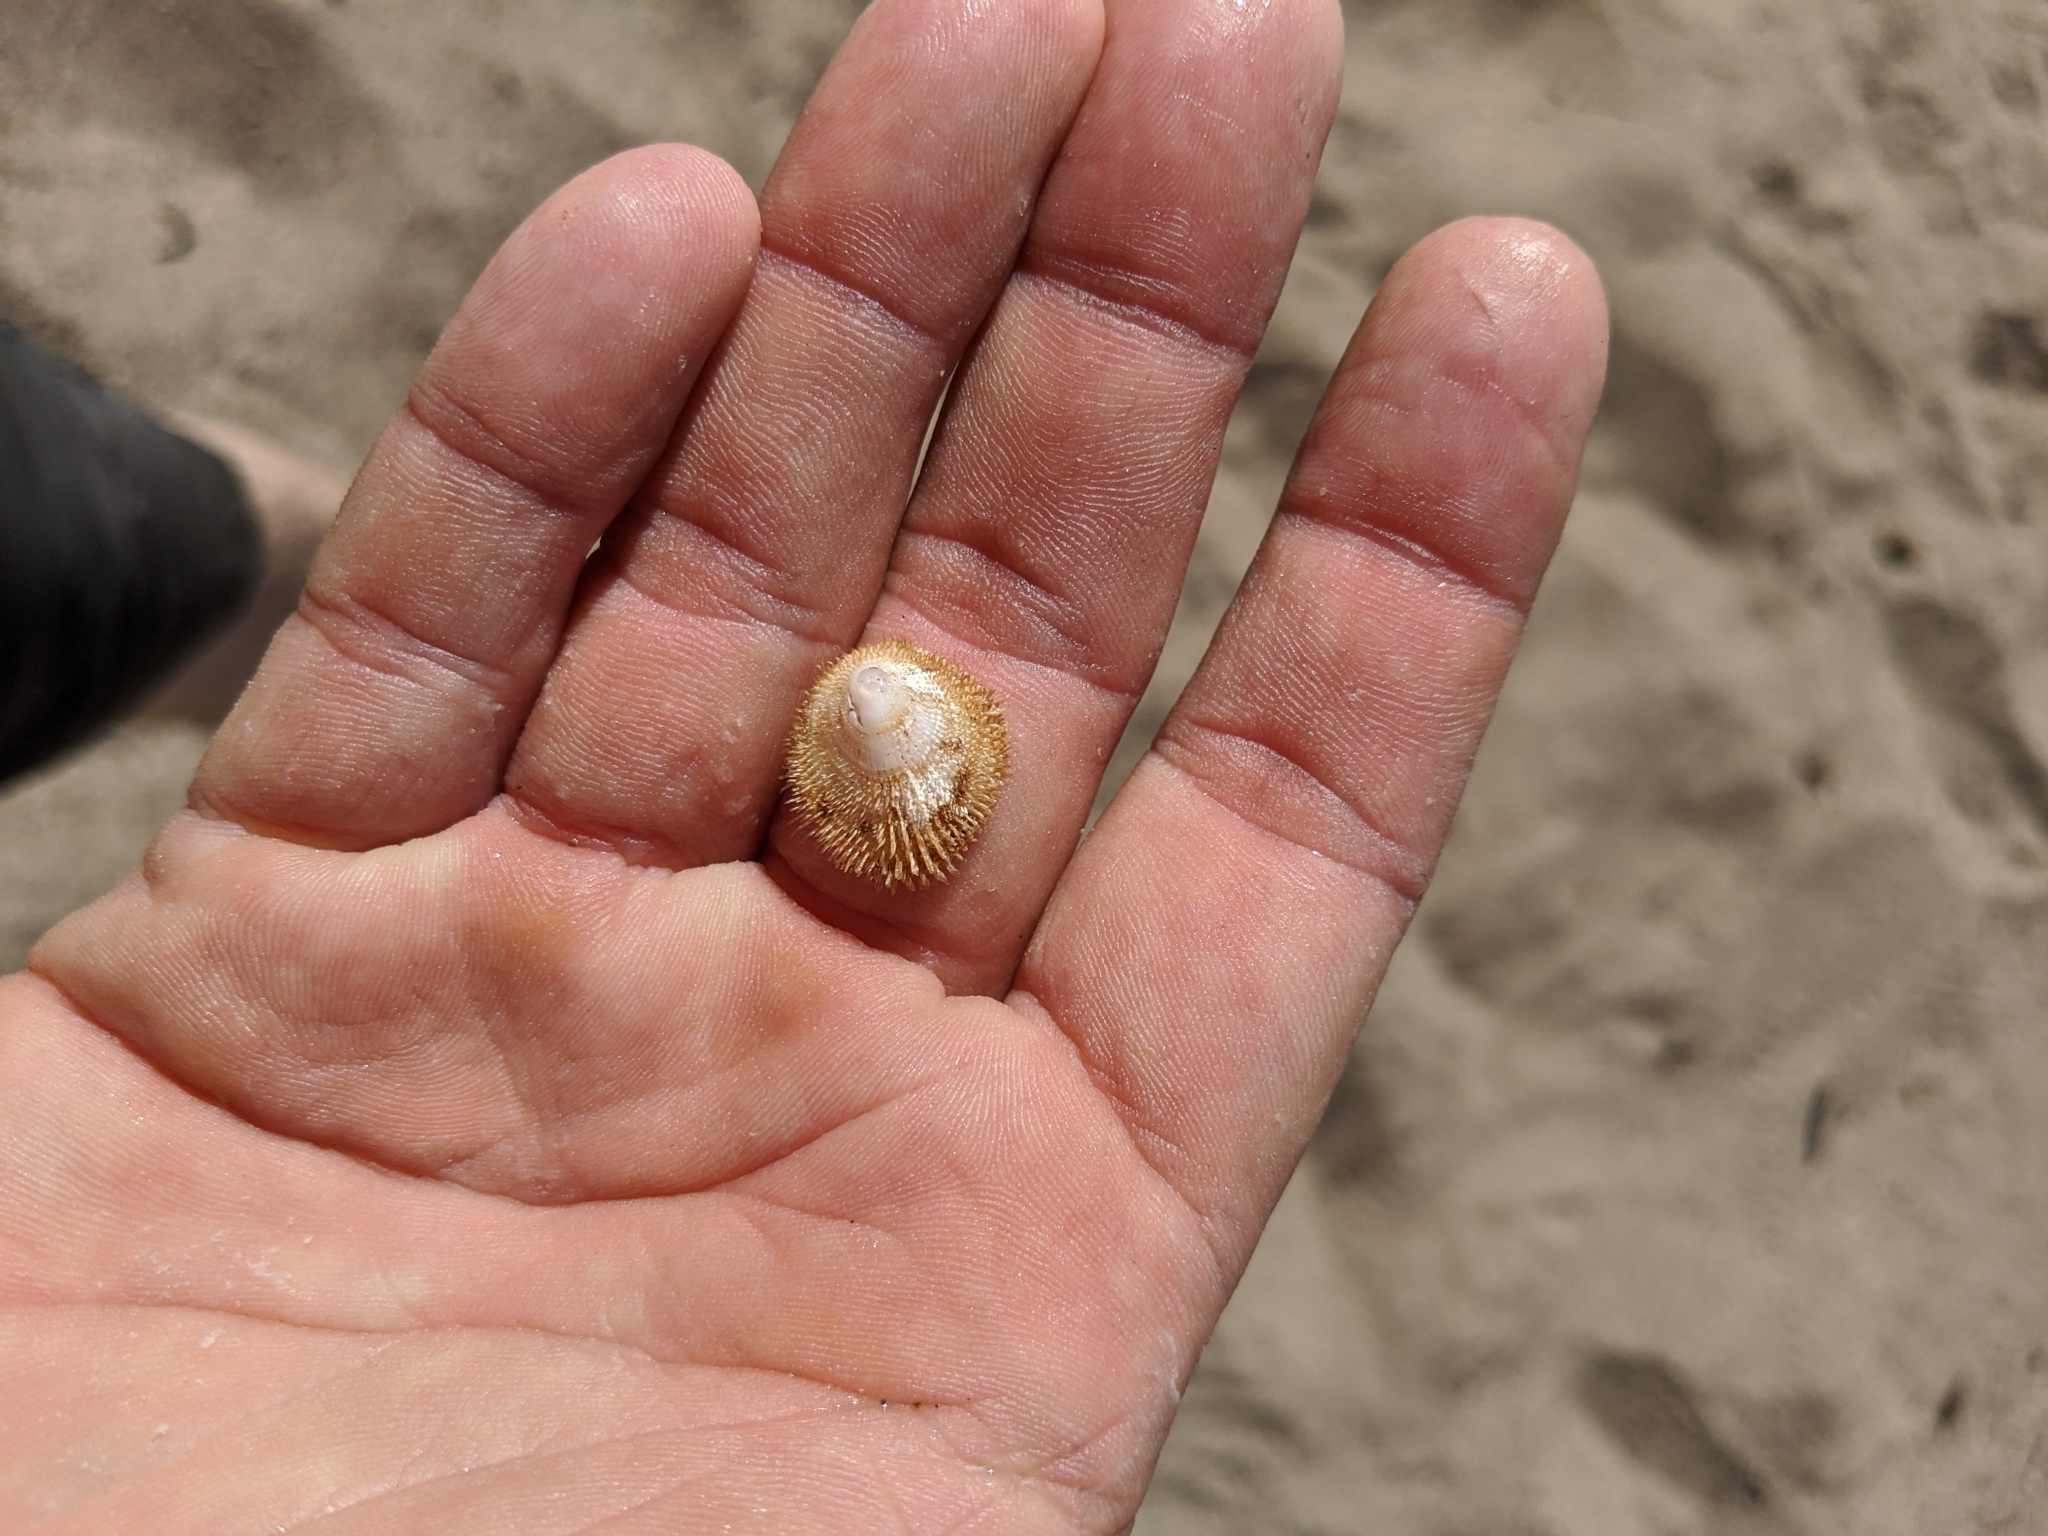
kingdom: Animalia
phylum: Mollusca
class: Gastropoda
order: Littorinimorpha
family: Hipponicidae
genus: Pilosabia
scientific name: Pilosabia trigona
